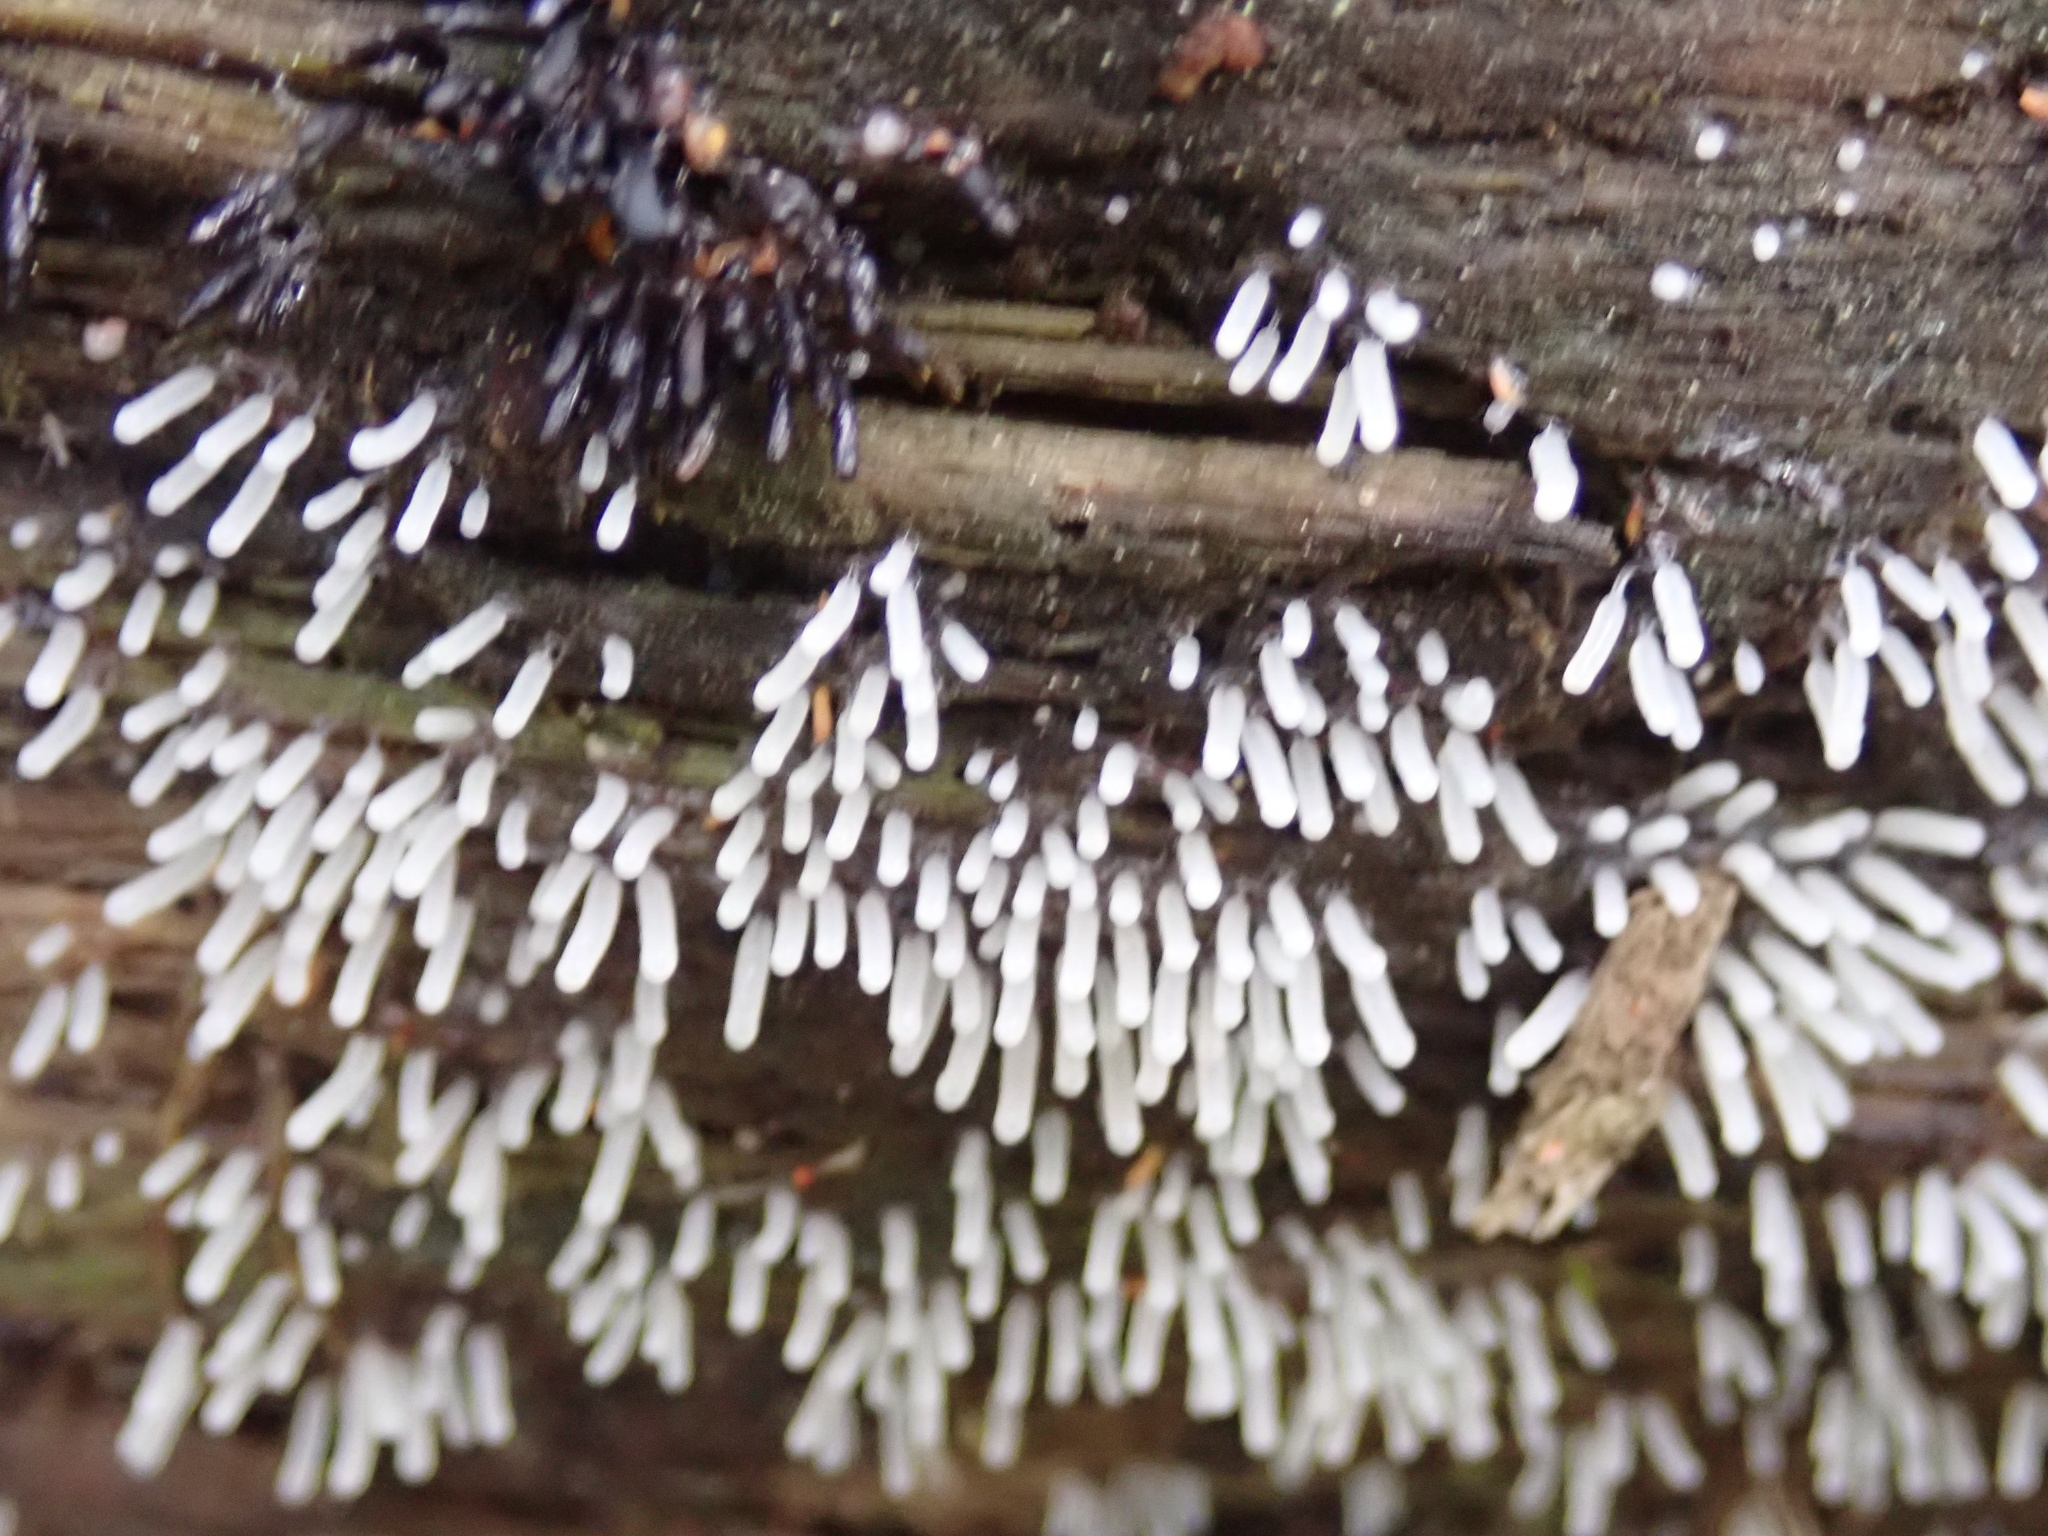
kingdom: Protozoa
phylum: Mycetozoa
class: Protosteliomycetes
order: Ceratiomyxales
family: Ceratiomyxaceae
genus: Ceratiomyxa
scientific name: Ceratiomyxa fruticulosa
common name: Honeycomb coral slime mold
